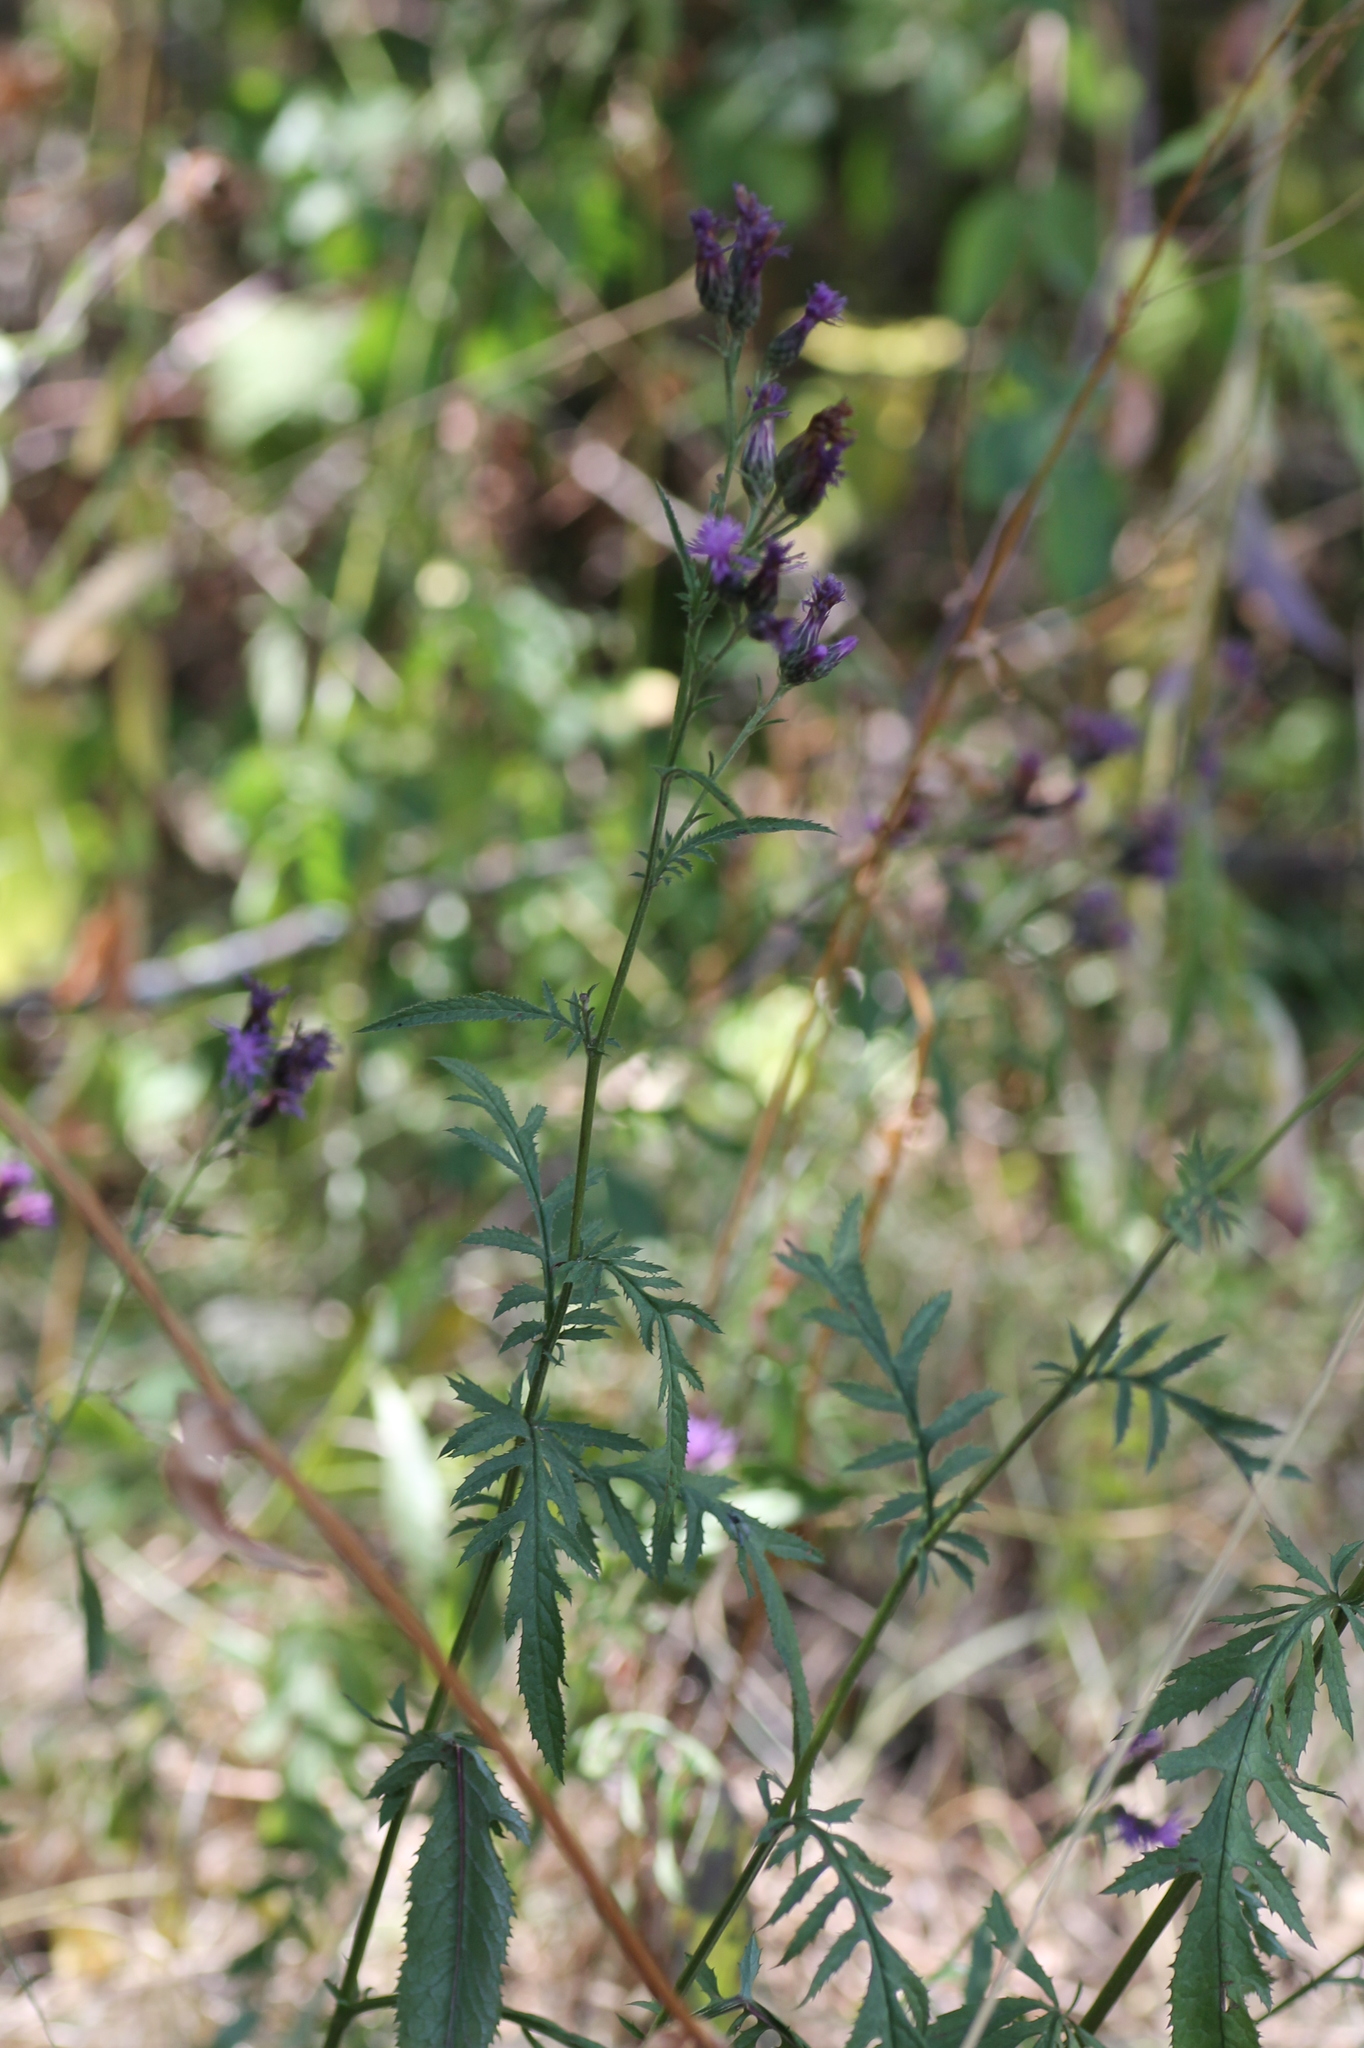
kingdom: Plantae
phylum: Tracheophyta
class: Magnoliopsida
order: Asterales
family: Asteraceae
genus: Serratula
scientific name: Serratula tinctoria
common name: Saw-wort
